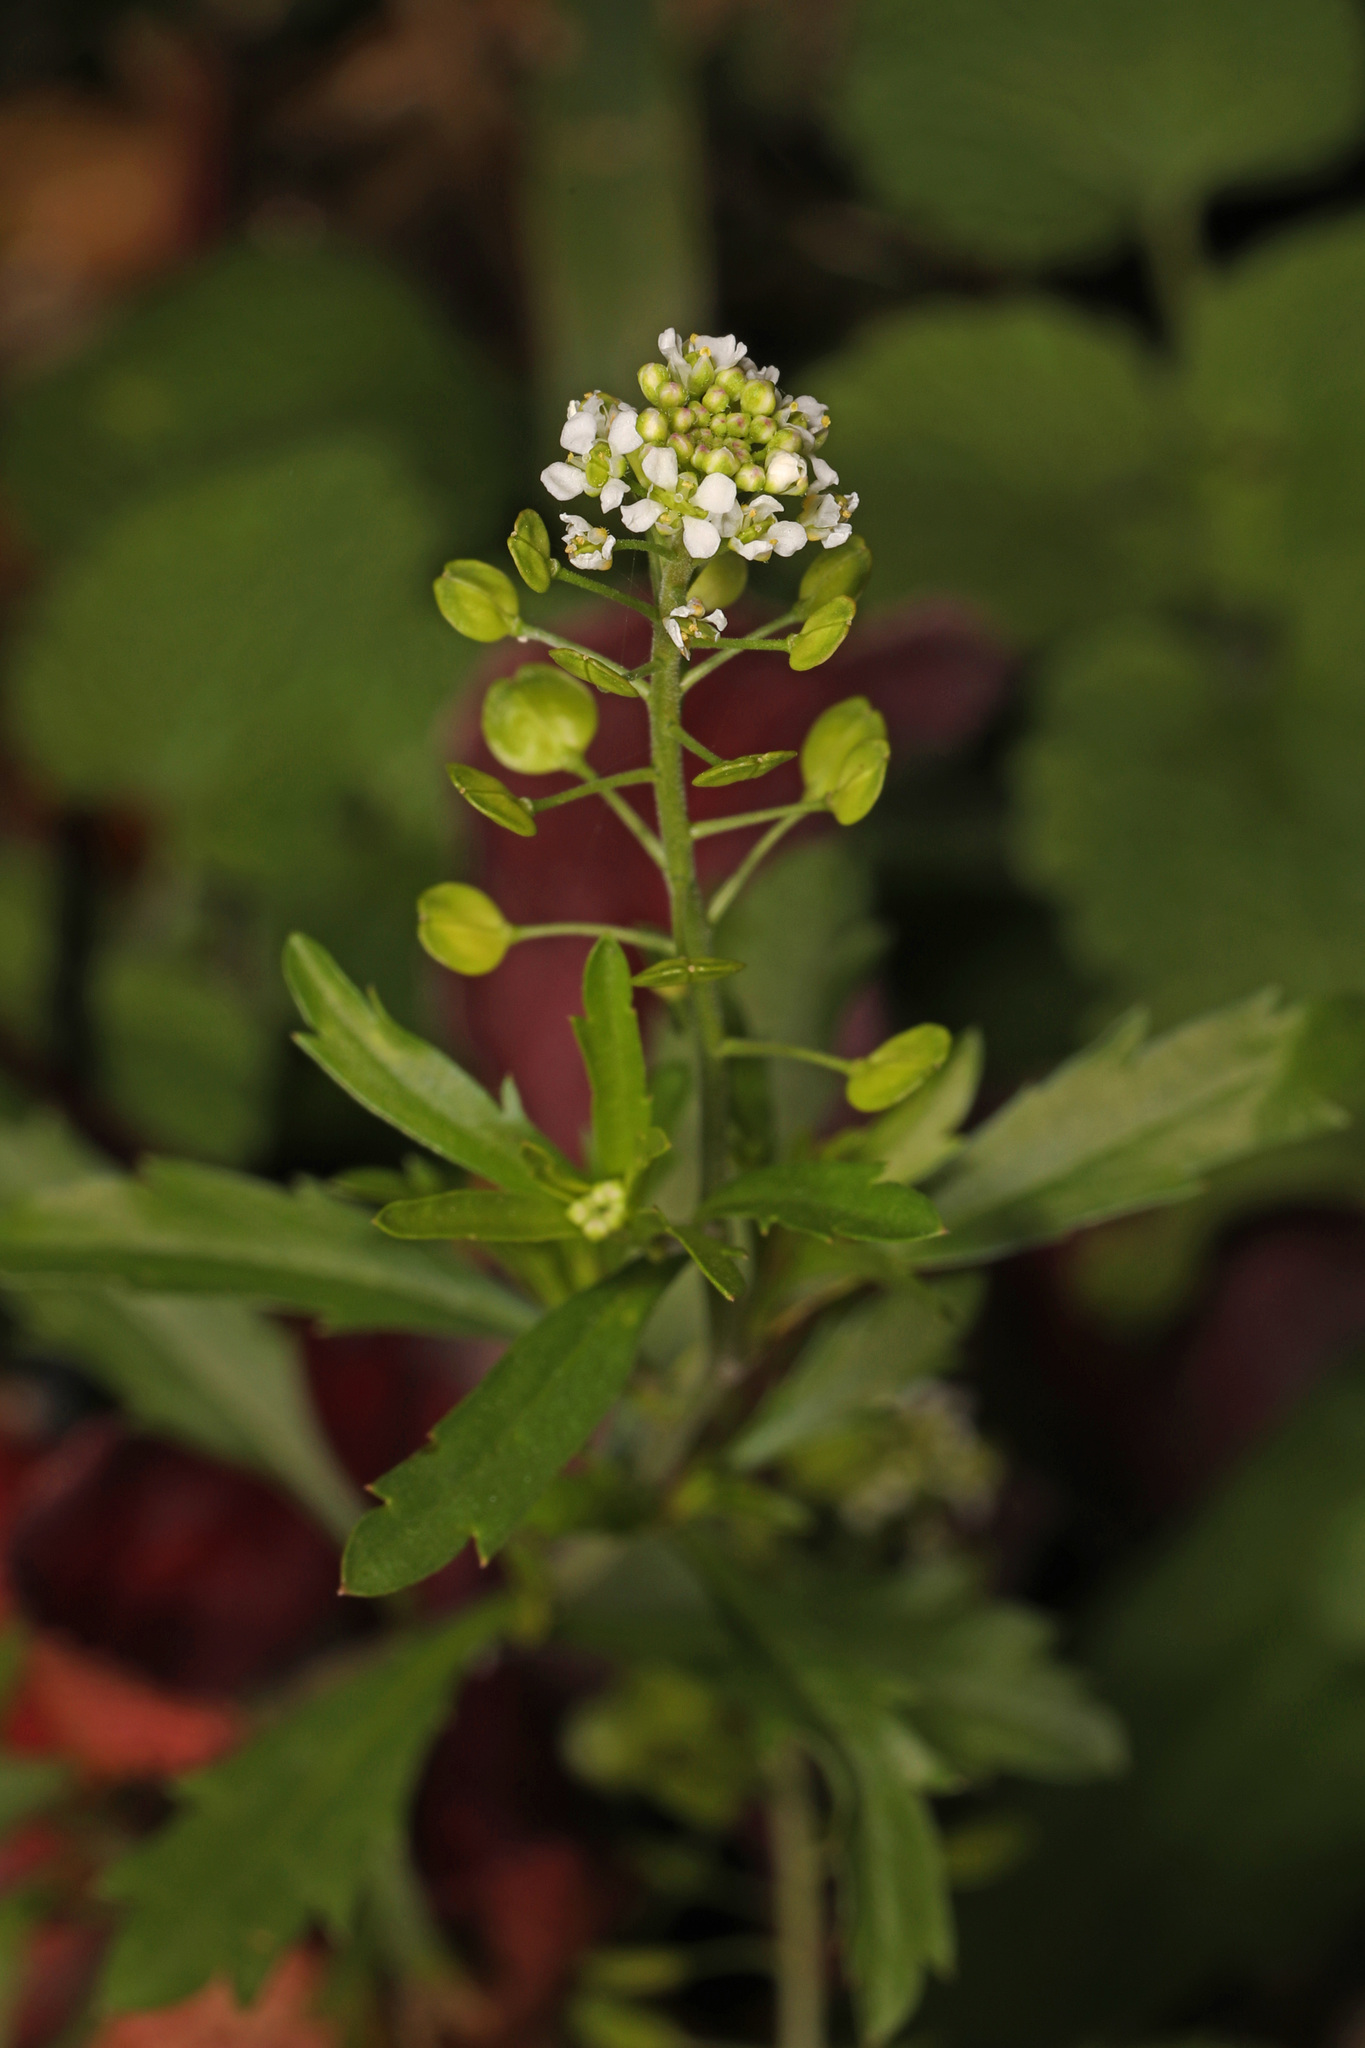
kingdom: Plantae
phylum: Tracheophyta
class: Magnoliopsida
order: Brassicales
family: Brassicaceae
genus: Lepidium
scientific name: Lepidium virginicum
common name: Least pepperwort
